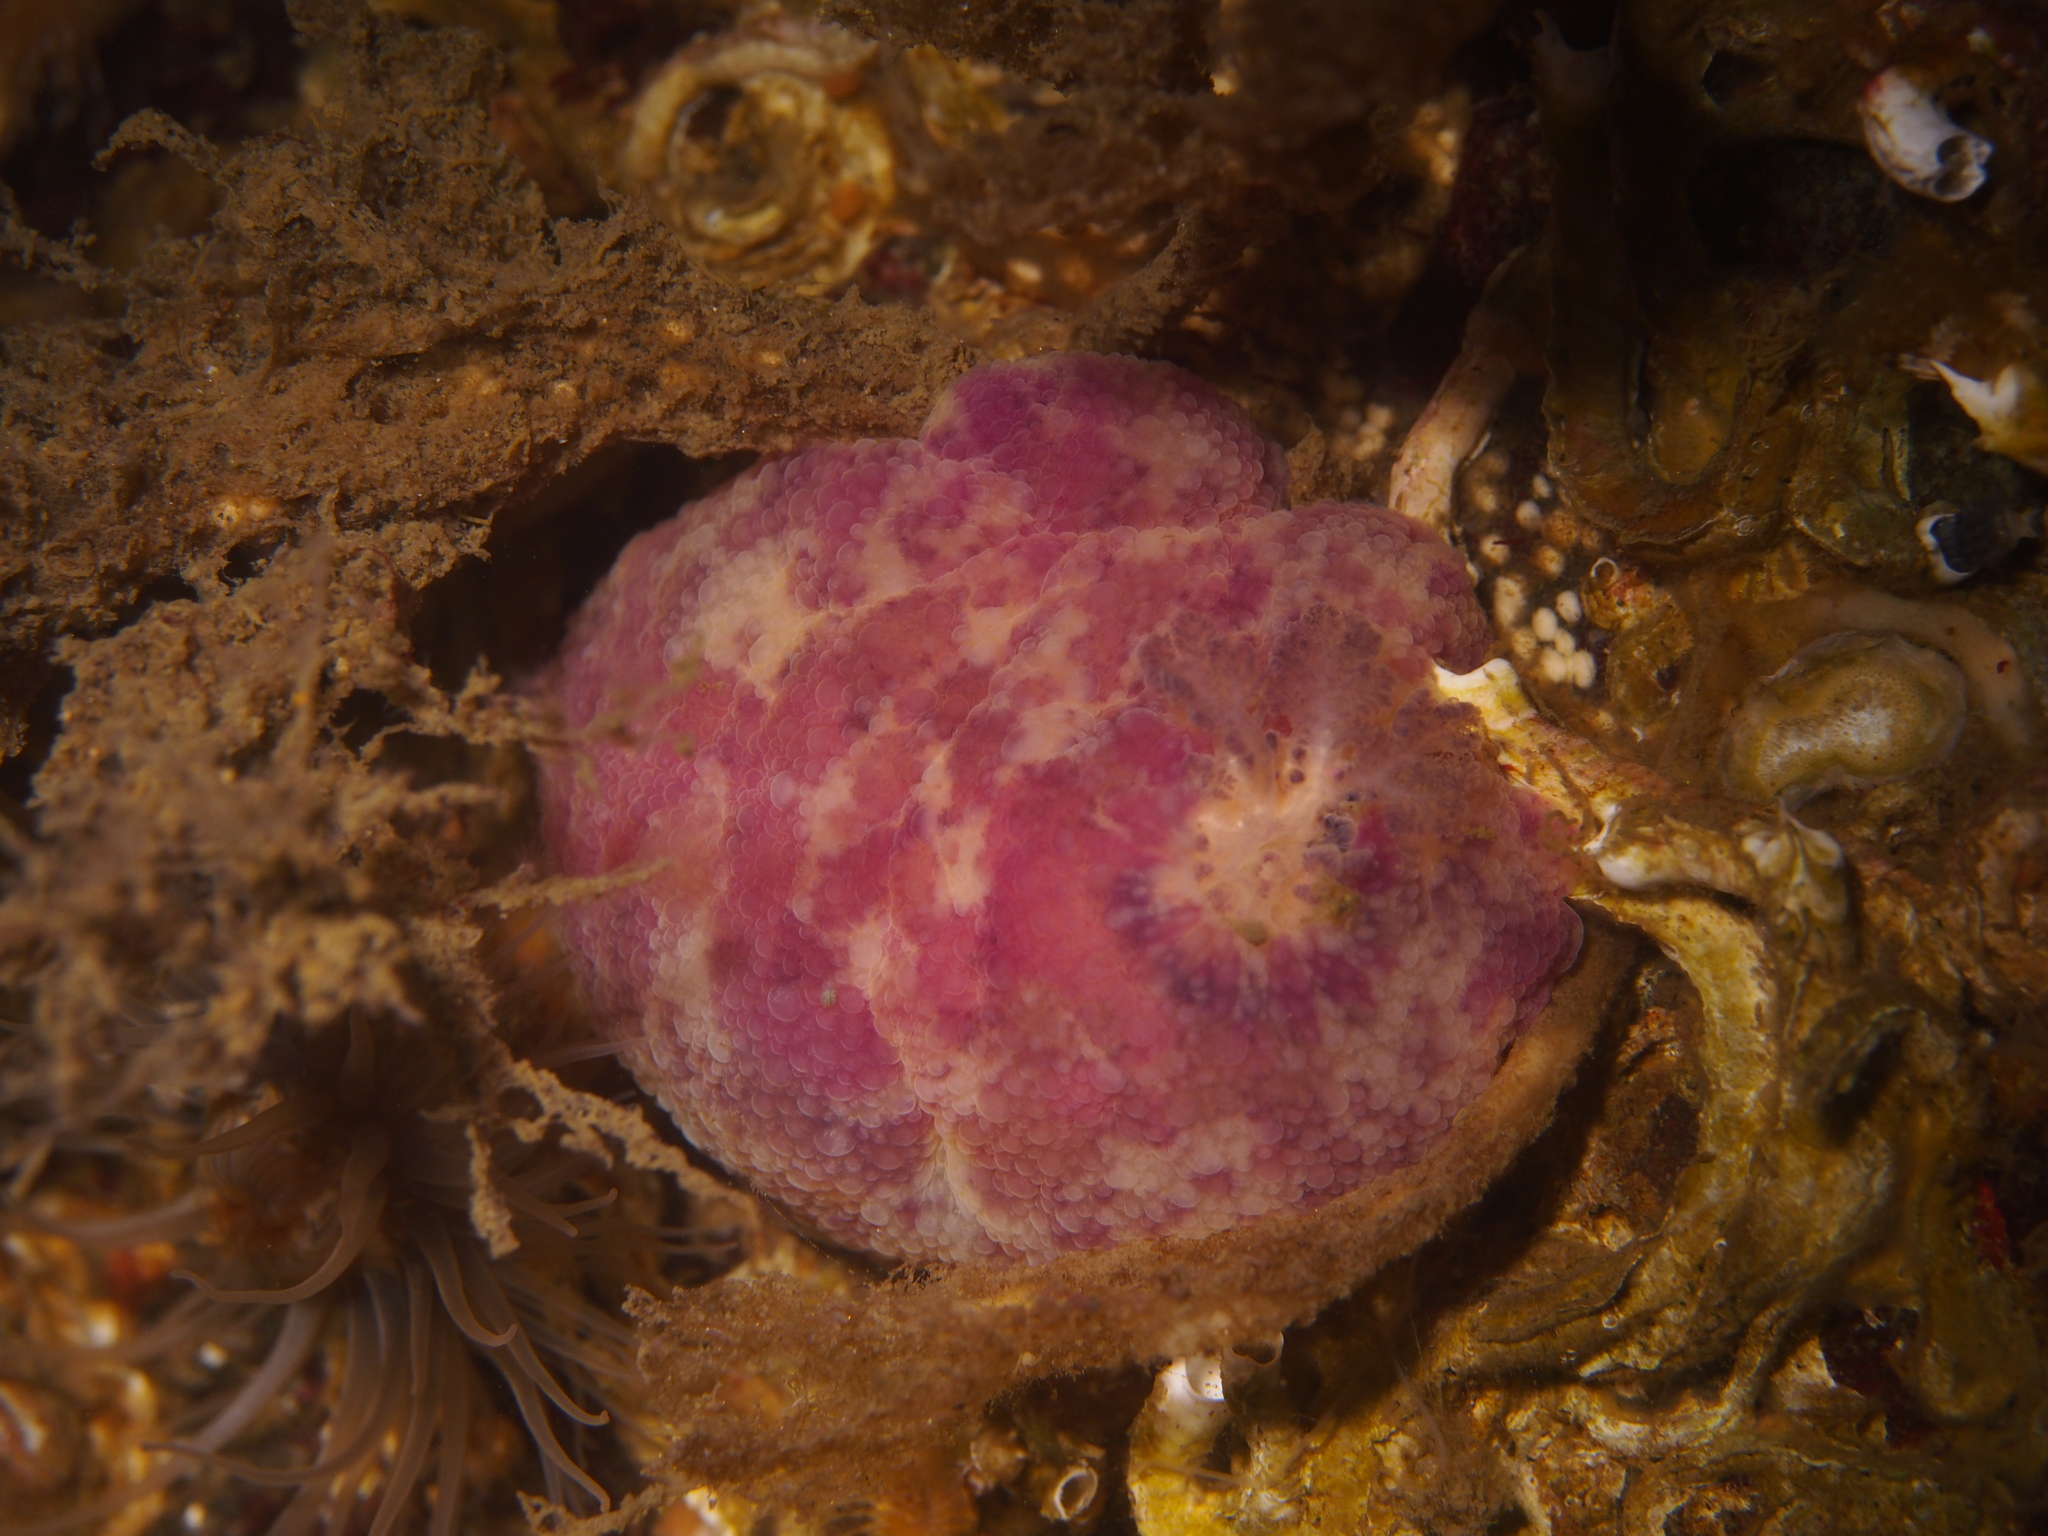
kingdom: Animalia
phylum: Mollusca
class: Gastropoda
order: Nudibranchia
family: Dorididae
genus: Doris
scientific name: Doris pseudoargus
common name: Sea lemon
